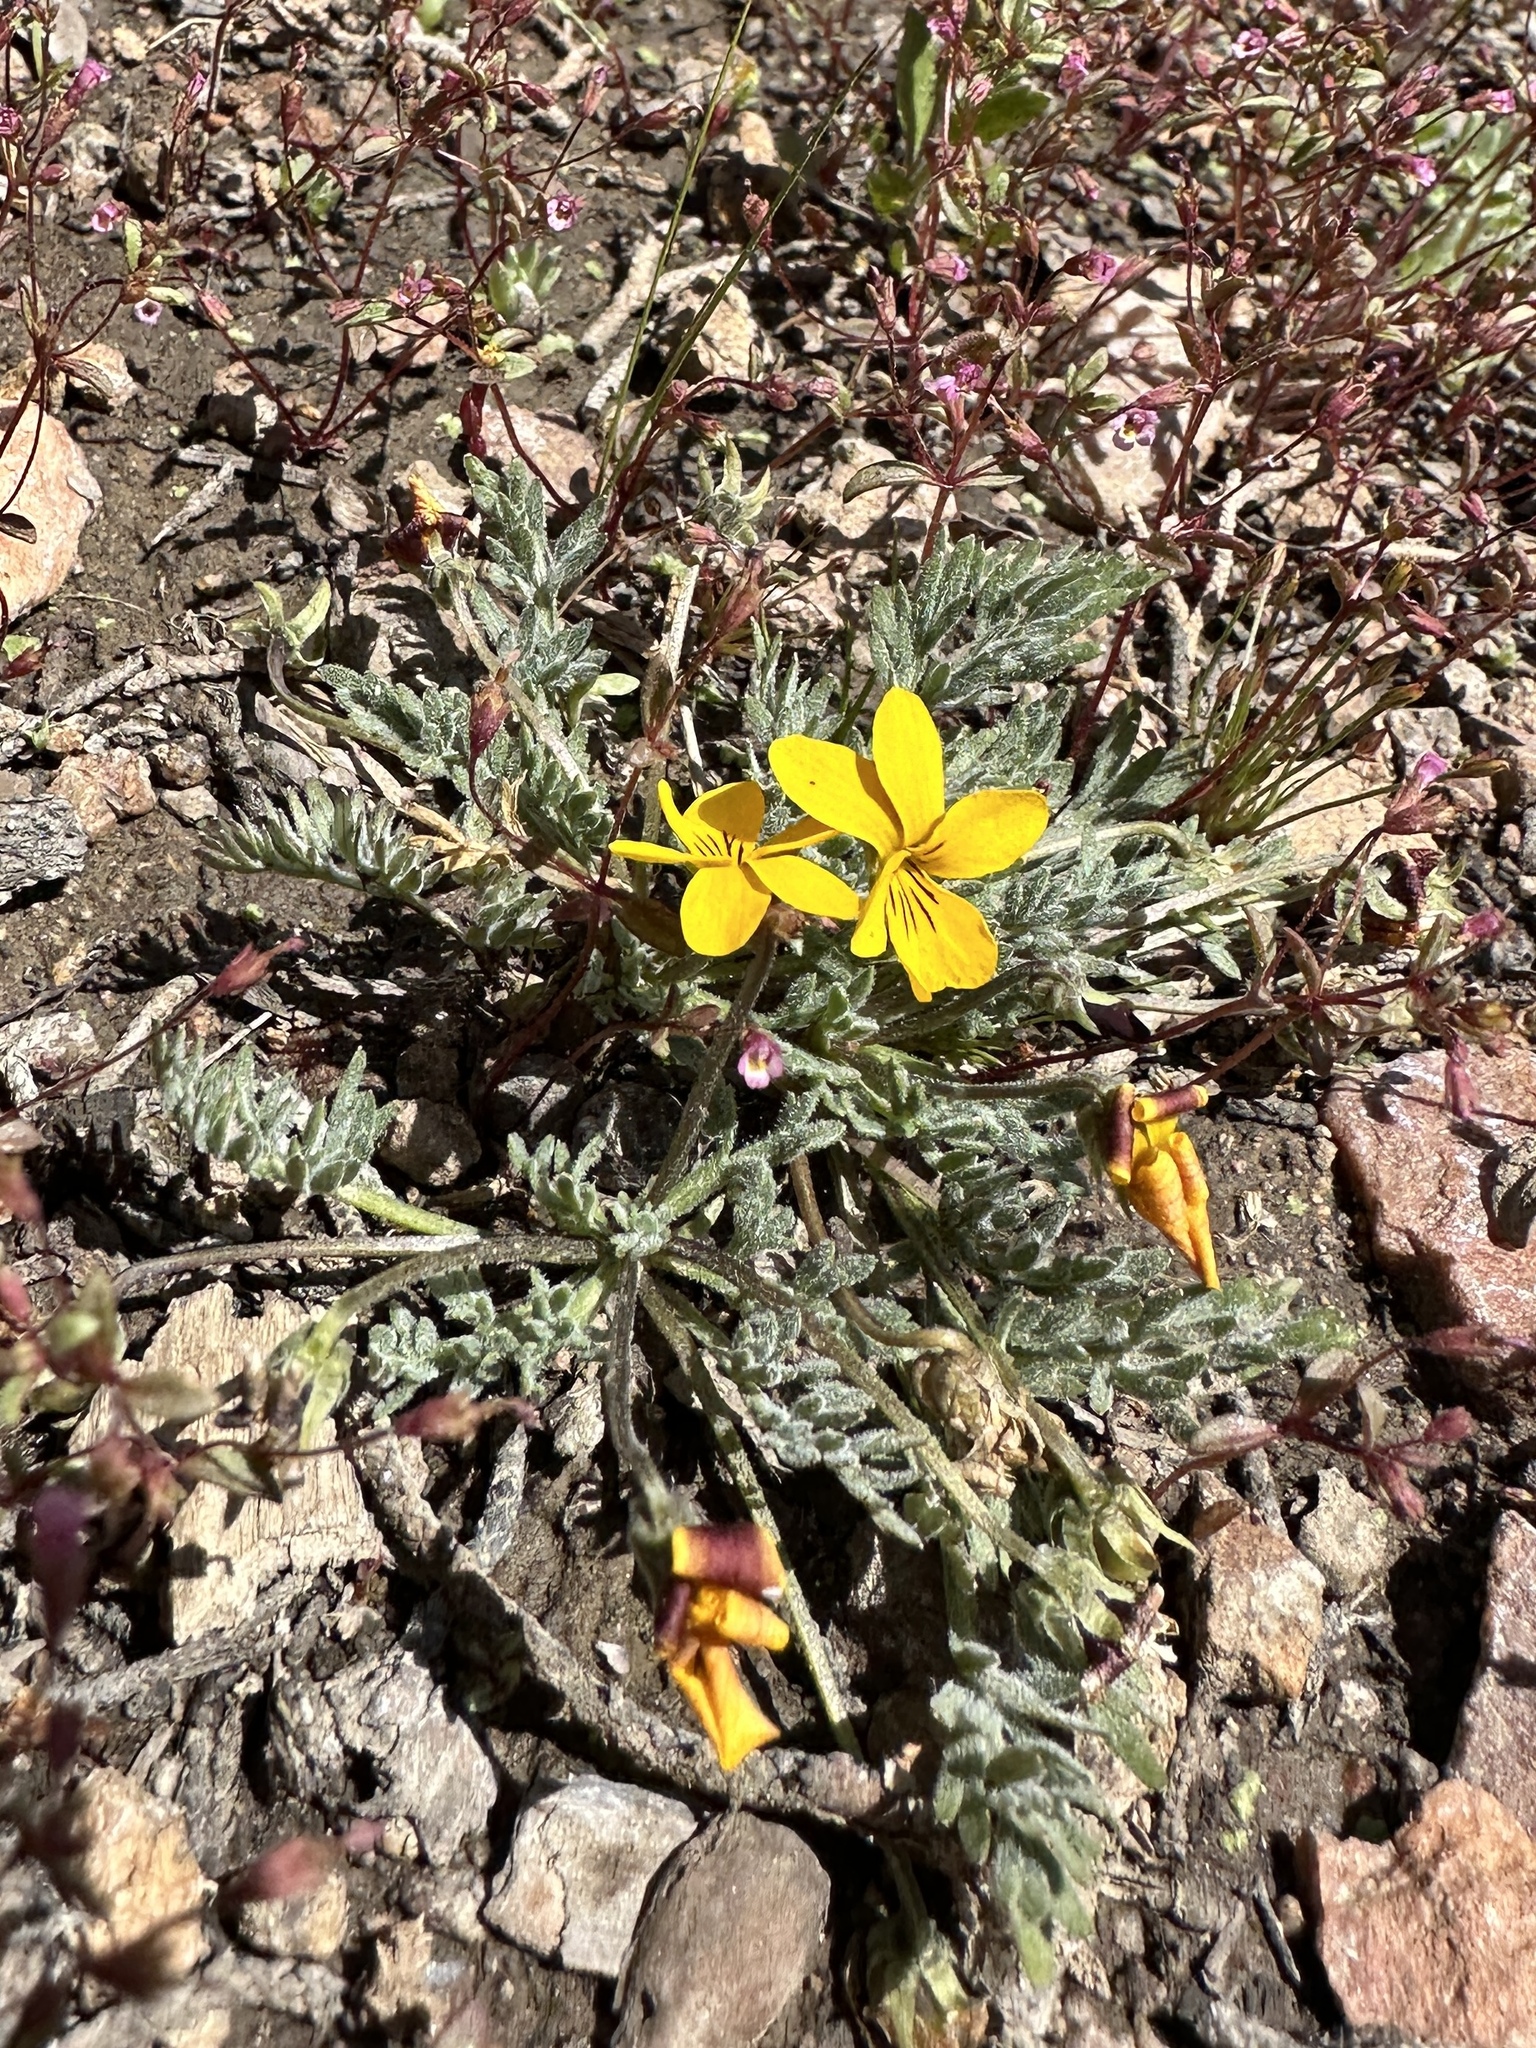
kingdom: Plantae
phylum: Tracheophyta
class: Magnoliopsida
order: Malpighiales
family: Violaceae
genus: Viola
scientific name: Viola douglasii
